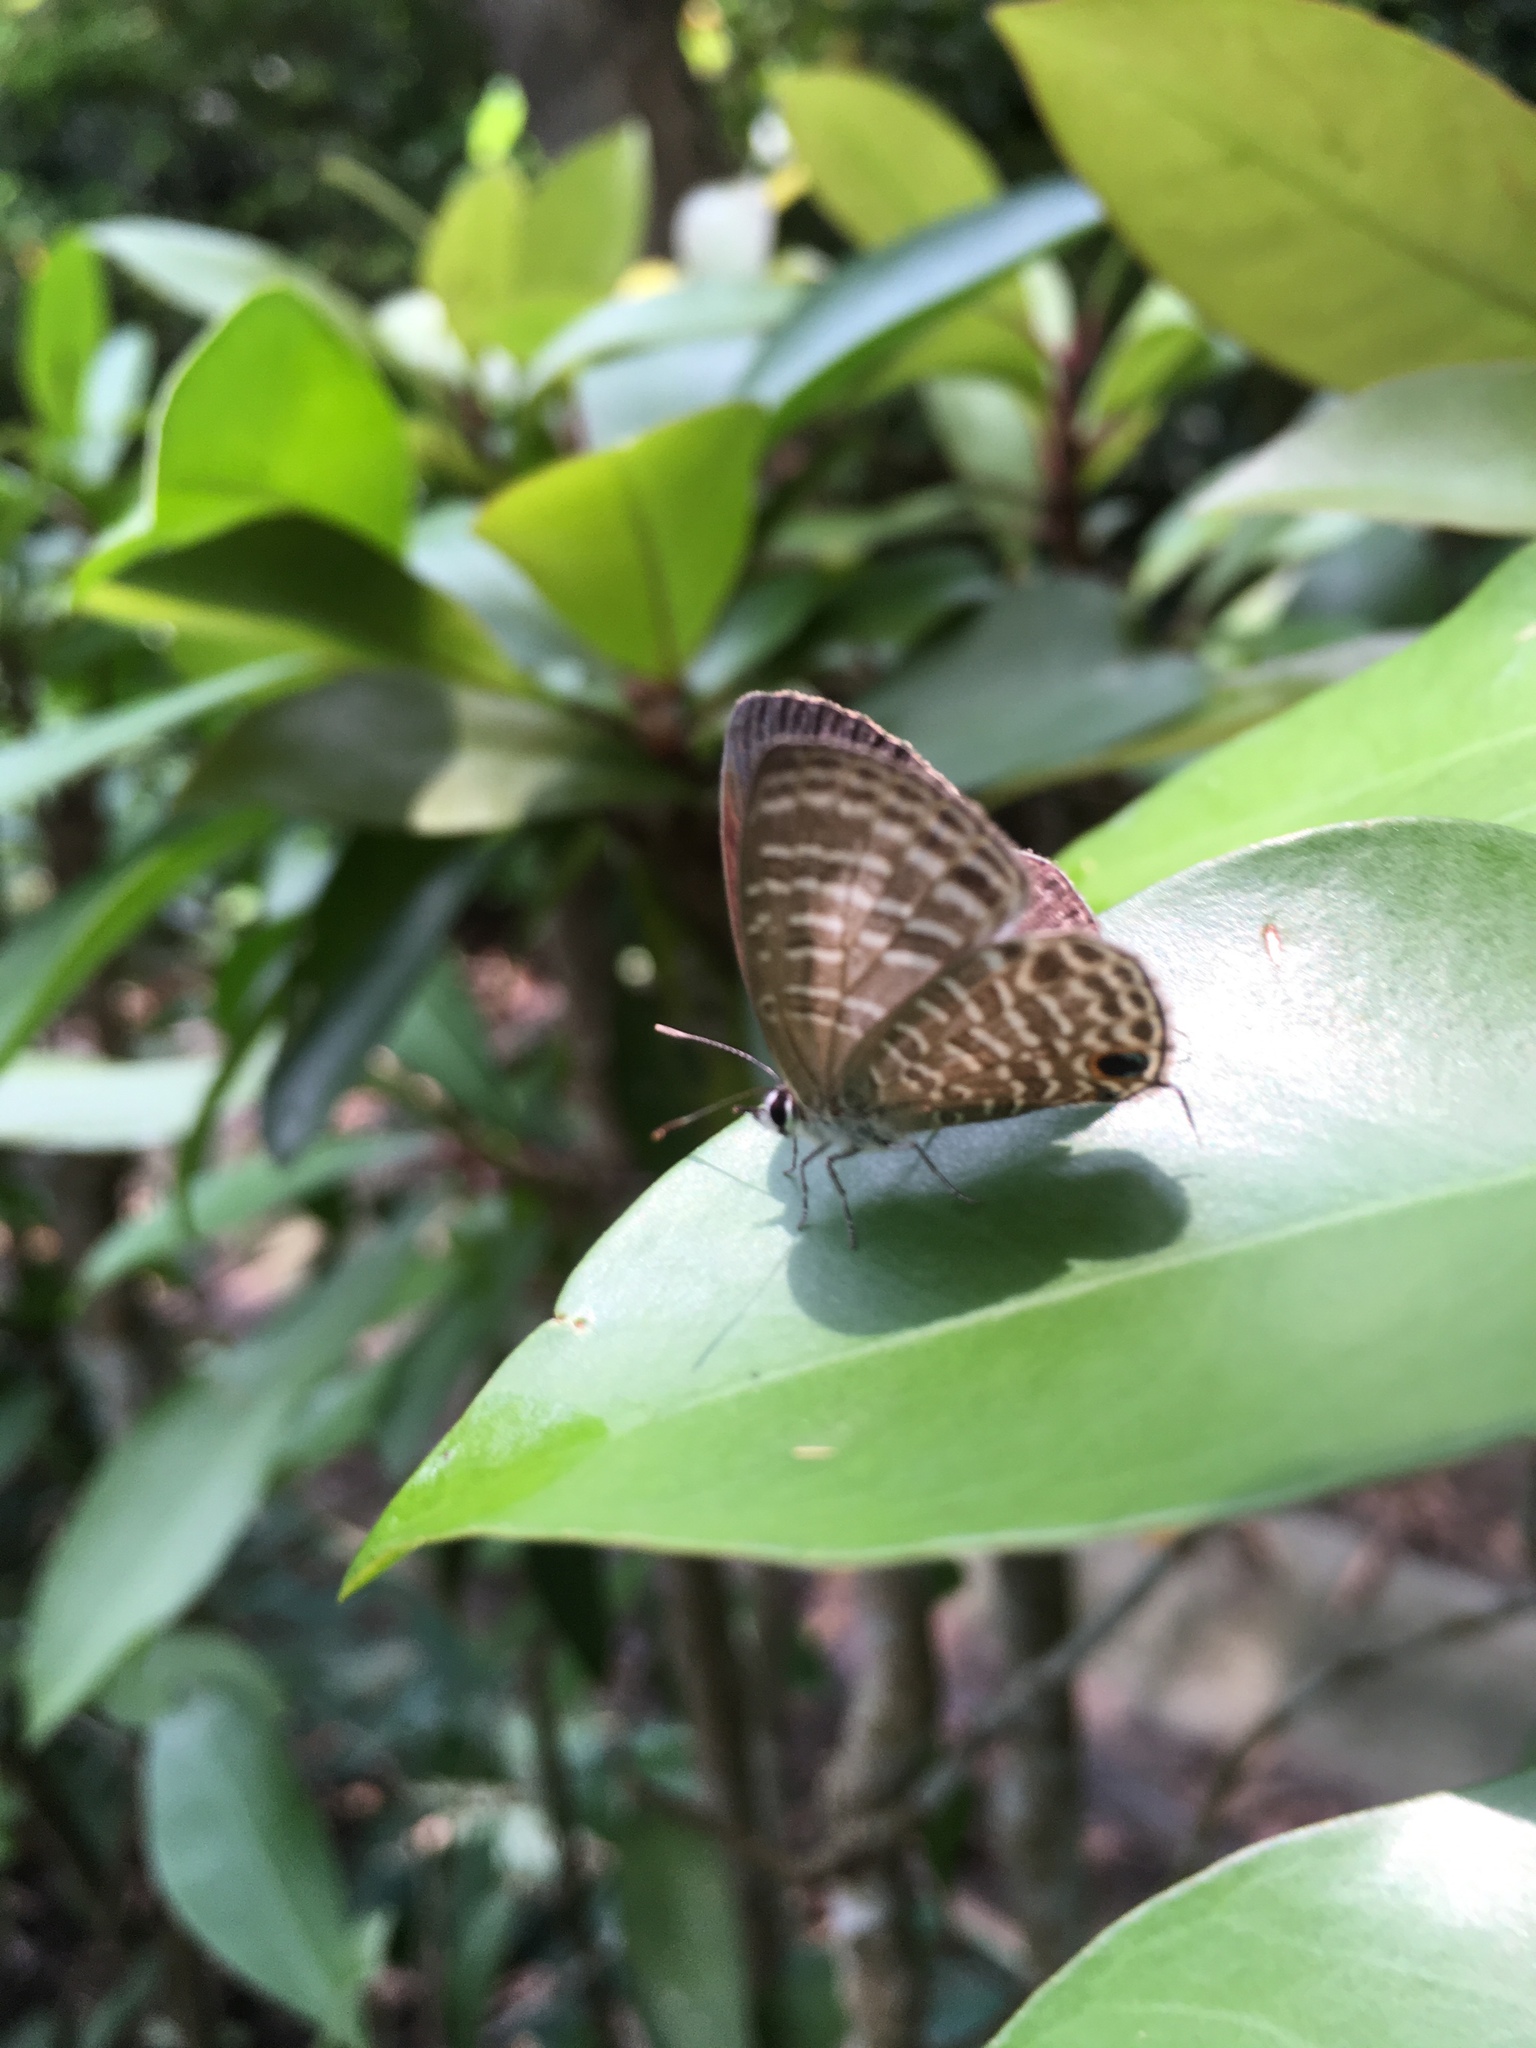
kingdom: Animalia
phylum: Arthropoda
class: Insecta
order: Lepidoptera
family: Lycaenidae
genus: Nacaduba
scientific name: Nacaduba kurava
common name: Transparent 6-line blue
